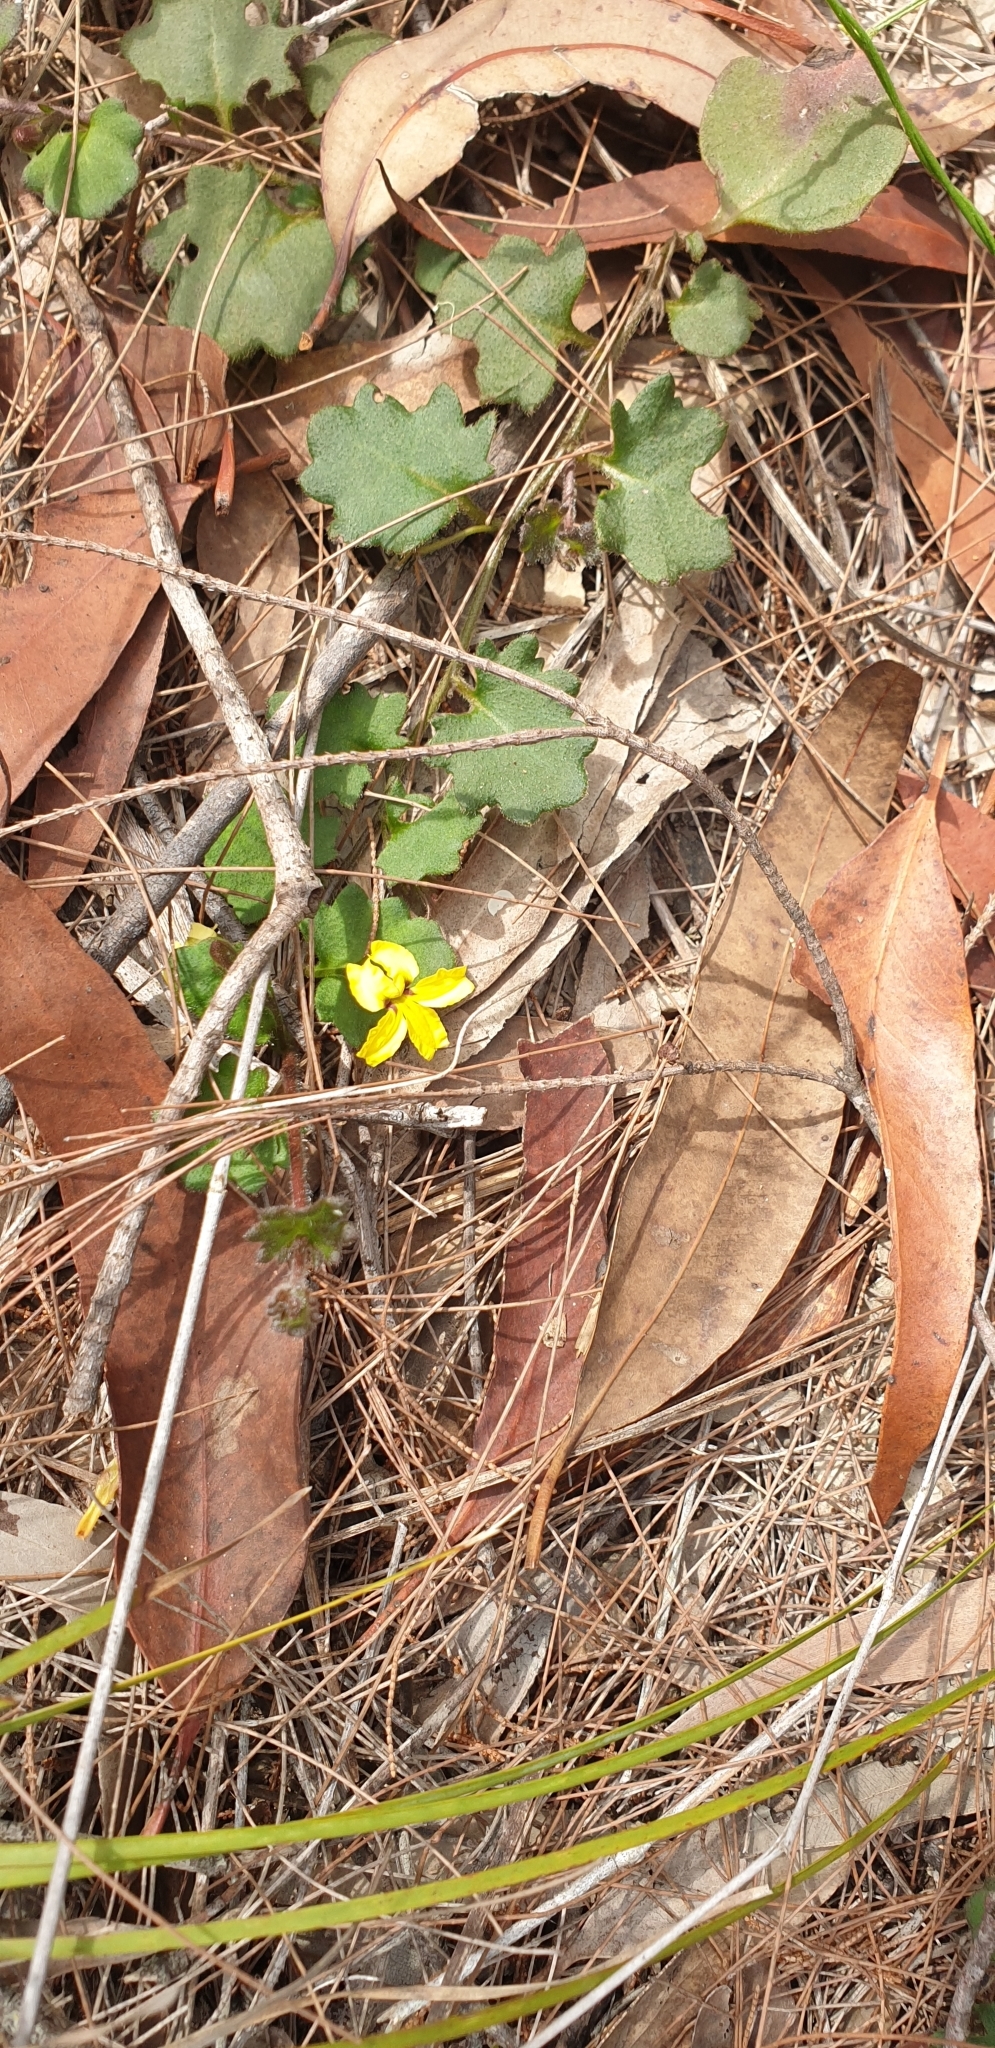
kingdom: Plantae
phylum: Tracheophyta
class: Magnoliopsida
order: Asterales
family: Goodeniaceae
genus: Goodenia
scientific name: Goodenia rotundifolia
